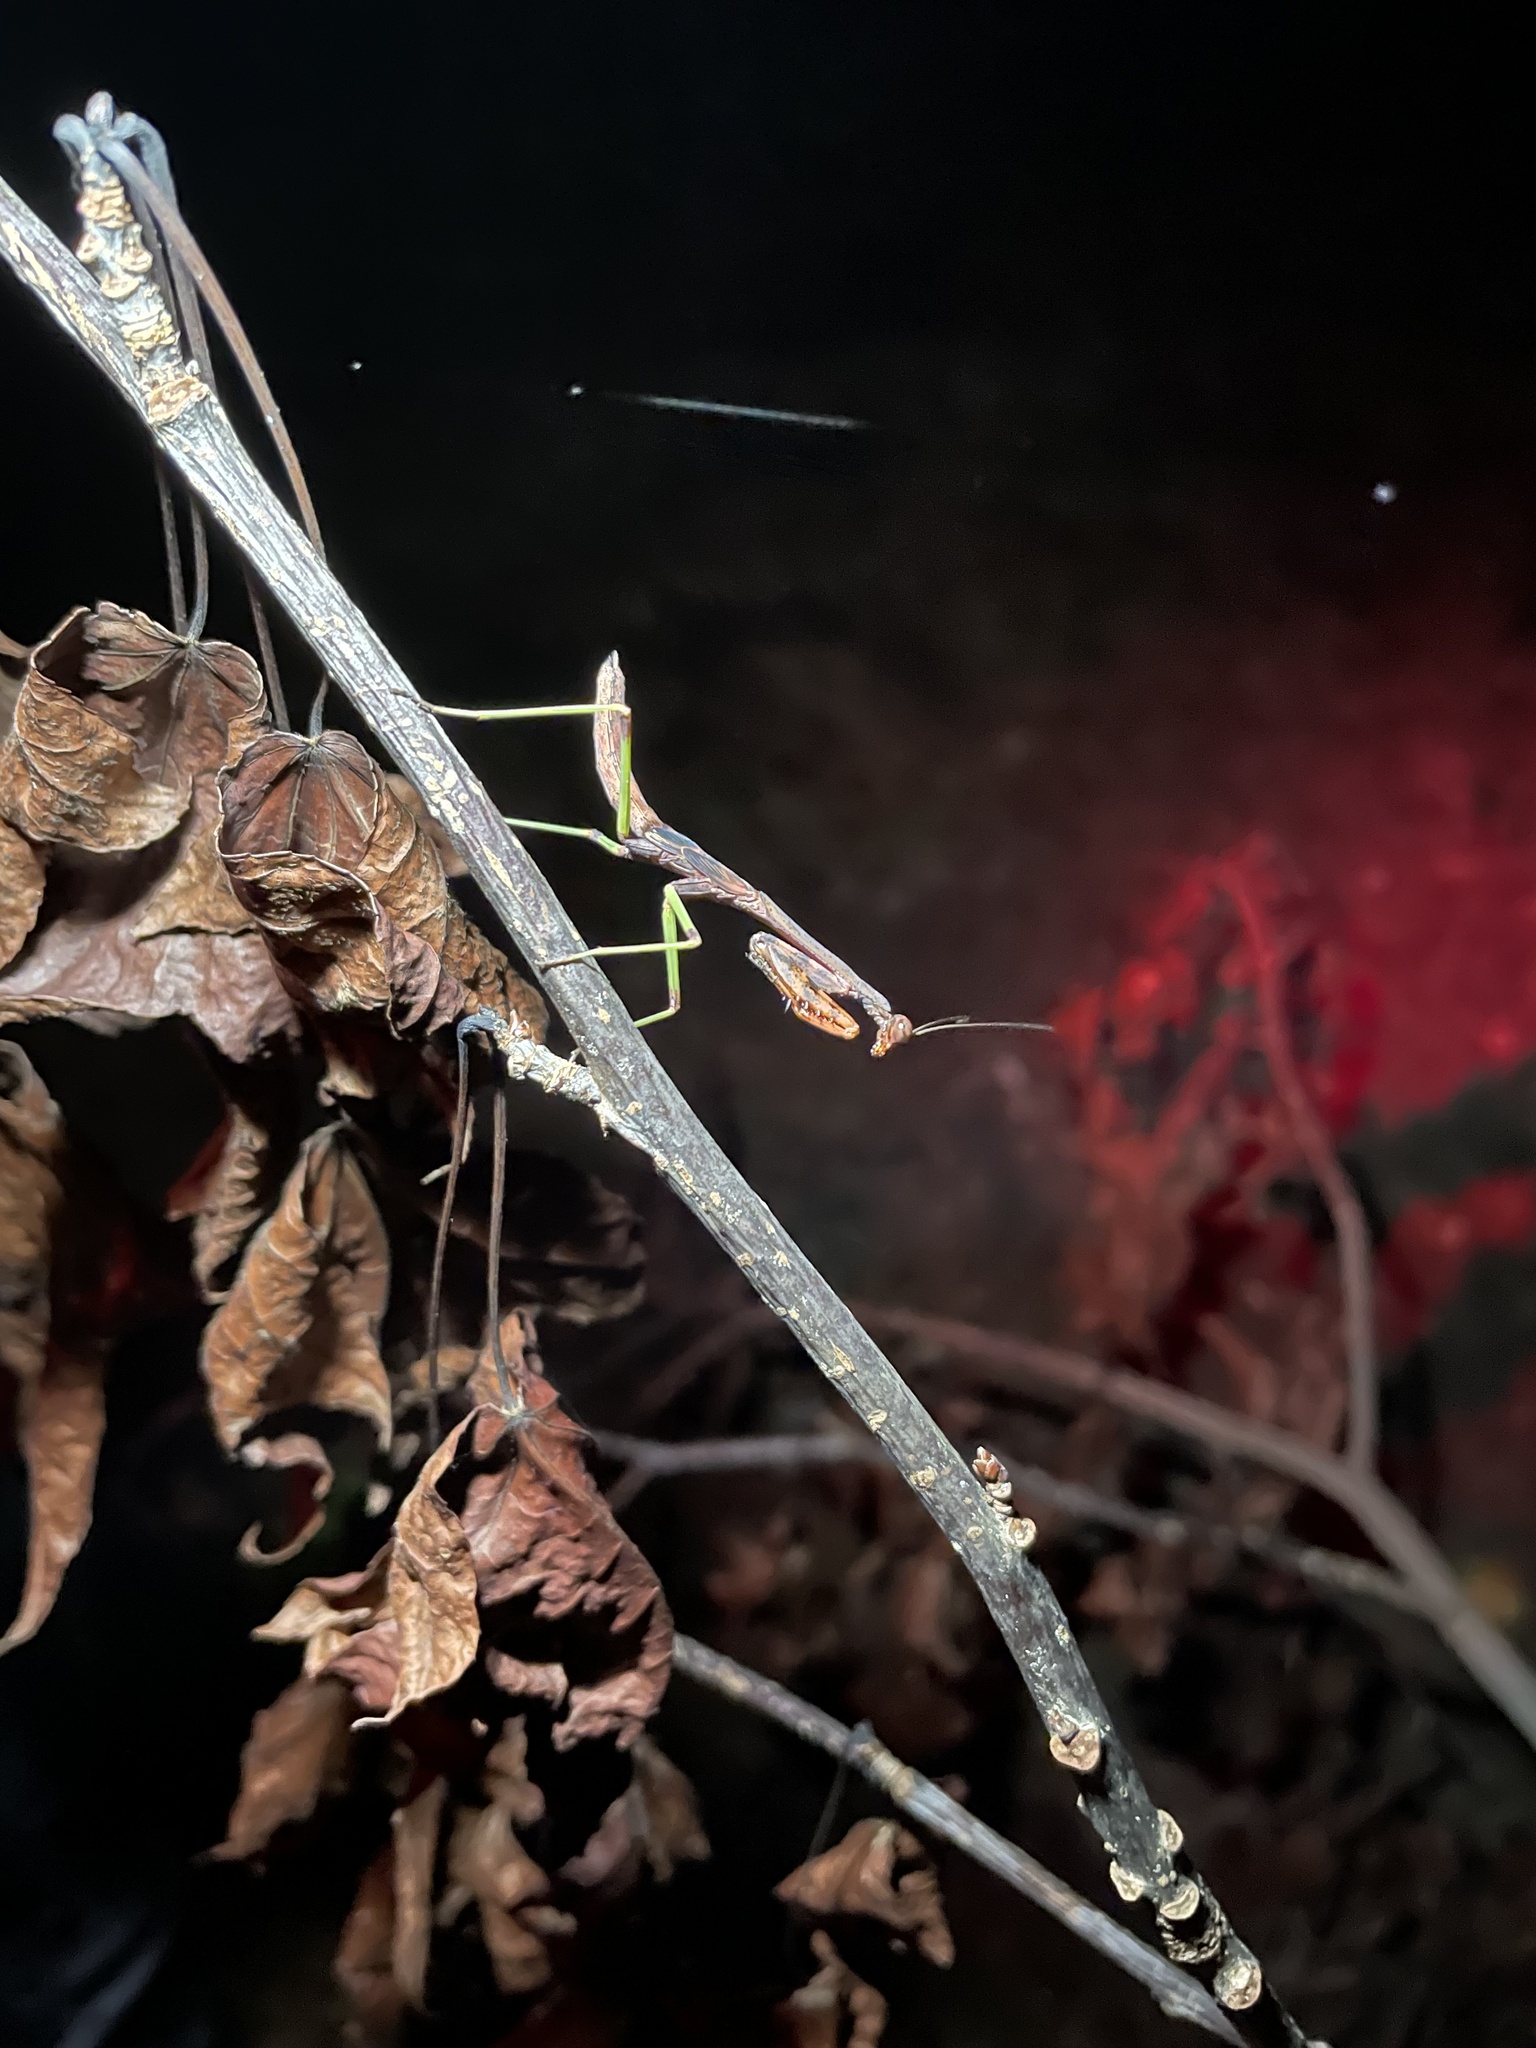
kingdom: Animalia
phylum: Arthropoda
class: Insecta
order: Mantodea
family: Mantidae
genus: Stagmomantis
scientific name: Stagmomantis carolina
